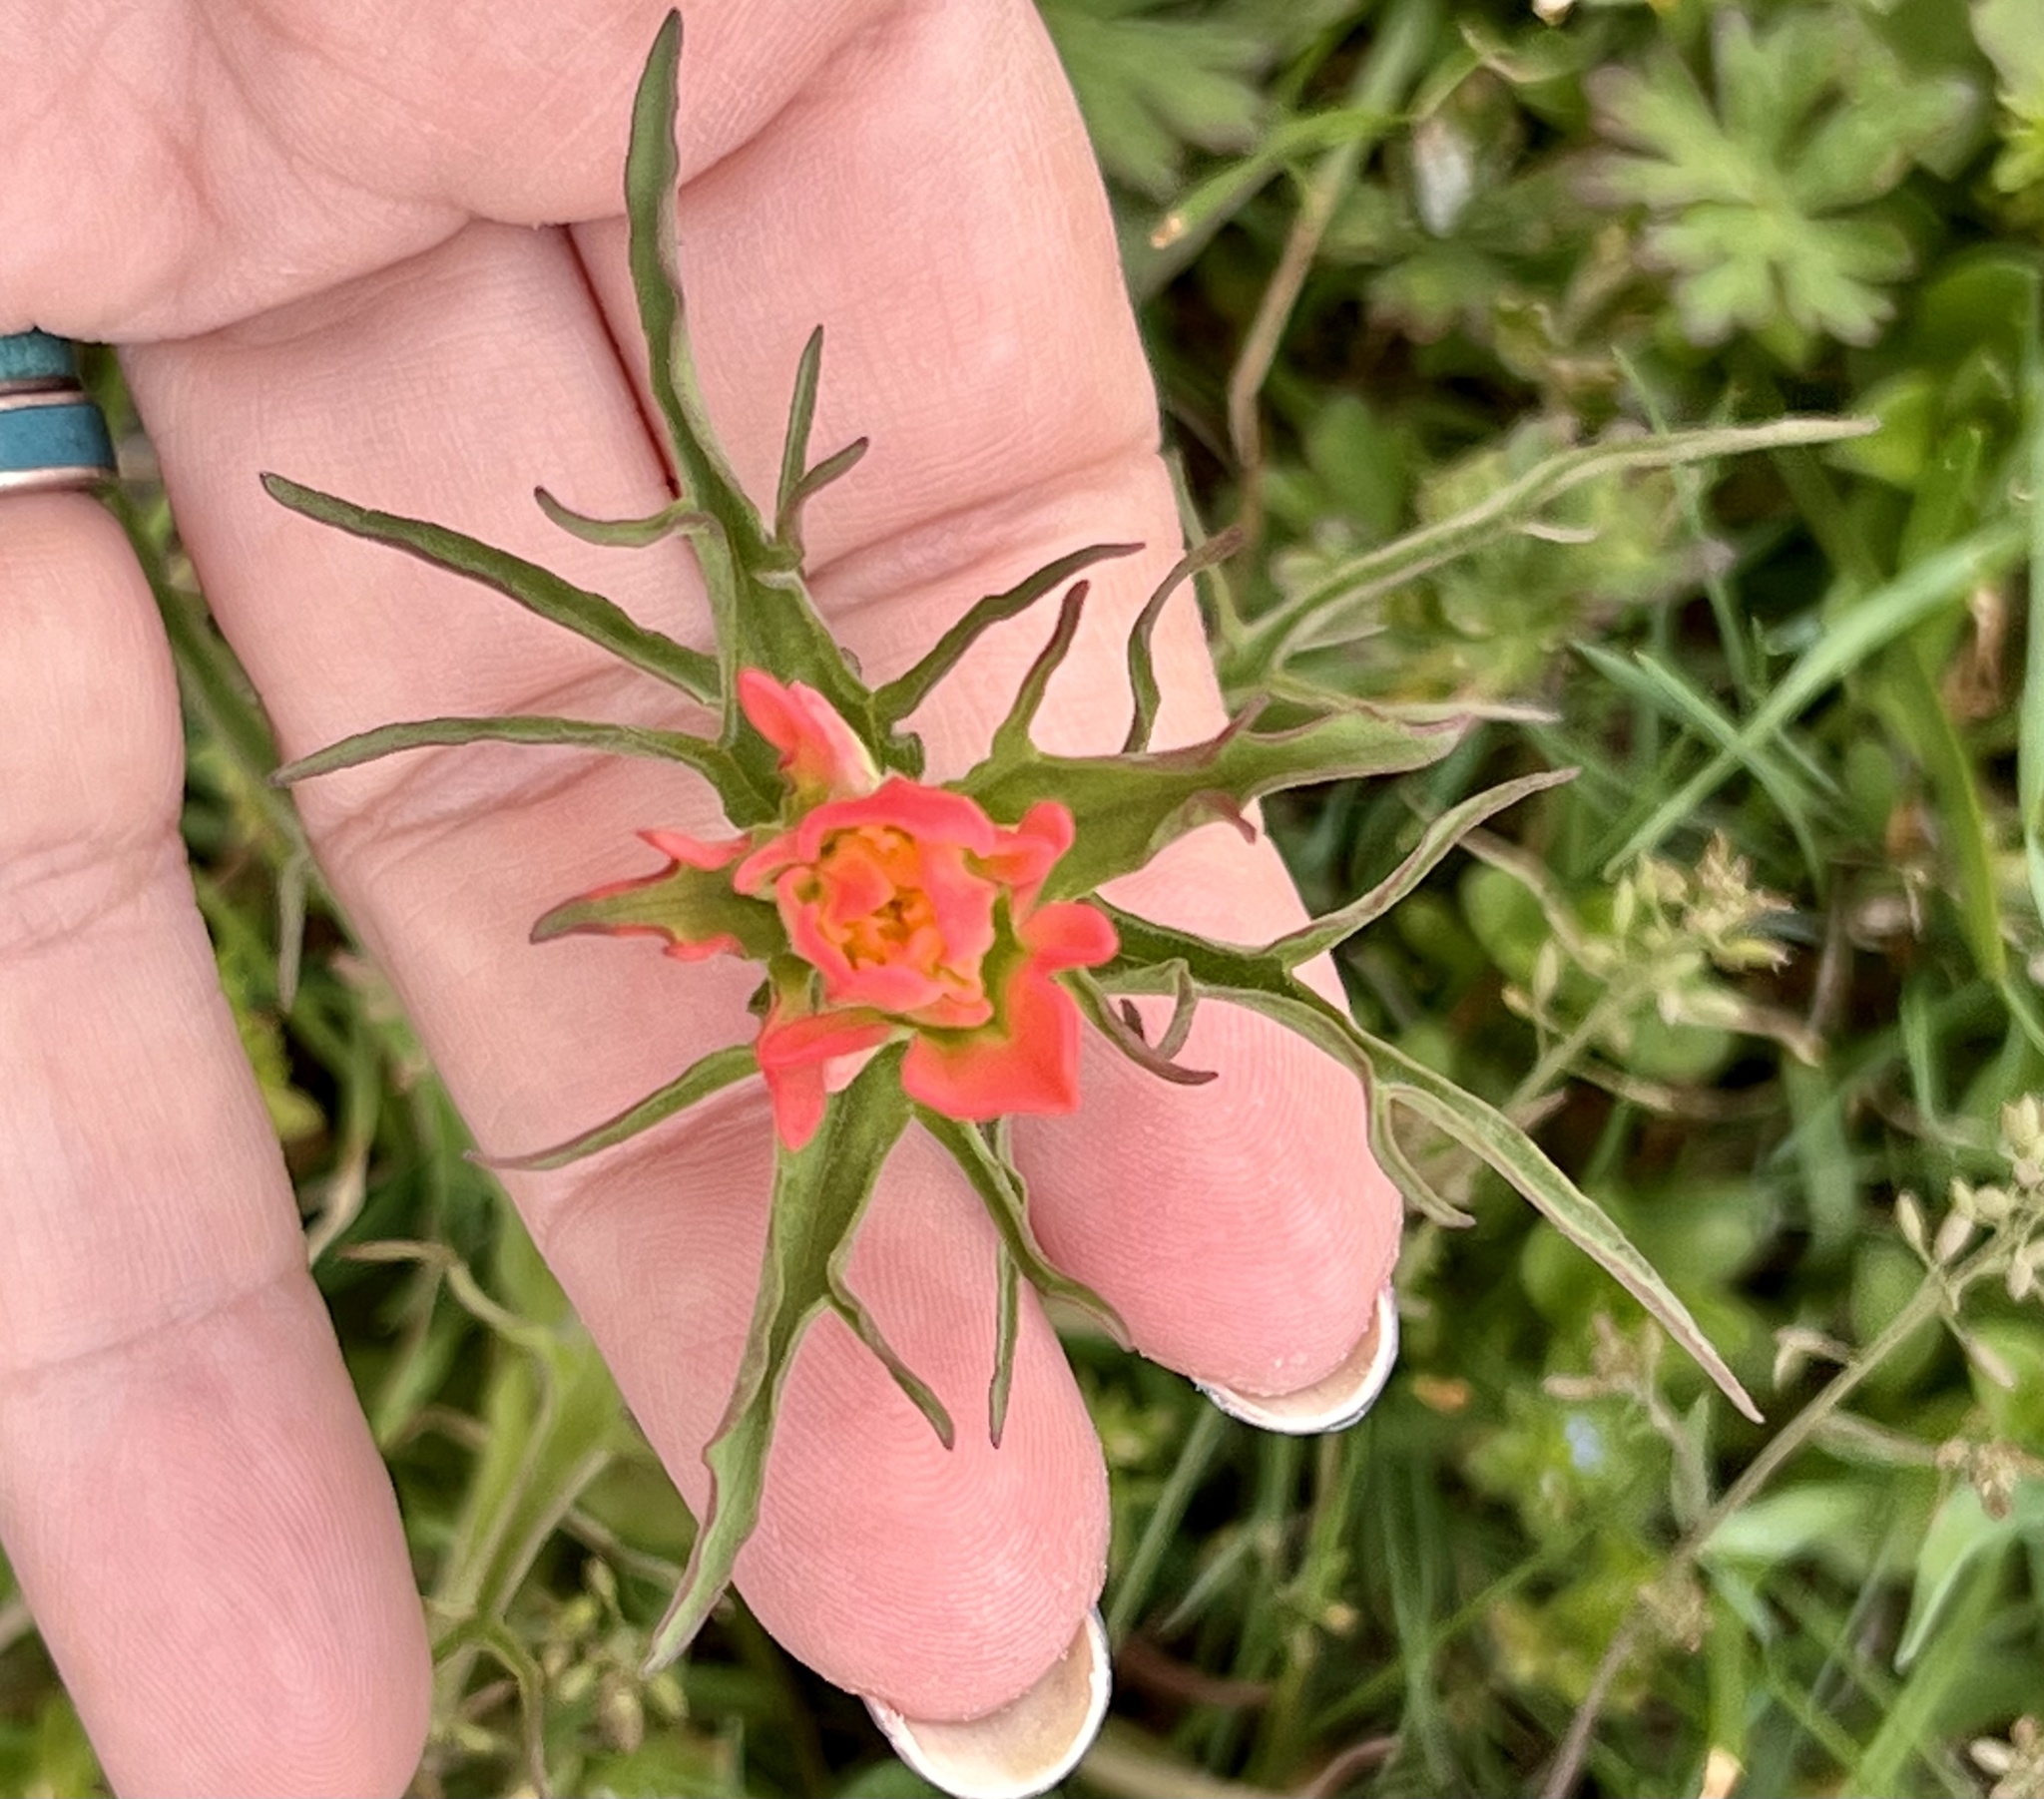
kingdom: Plantae
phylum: Tracheophyta
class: Magnoliopsida
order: Lamiales
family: Orobanchaceae
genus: Castilleja
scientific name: Castilleja indivisa
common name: Texas paintbrush
